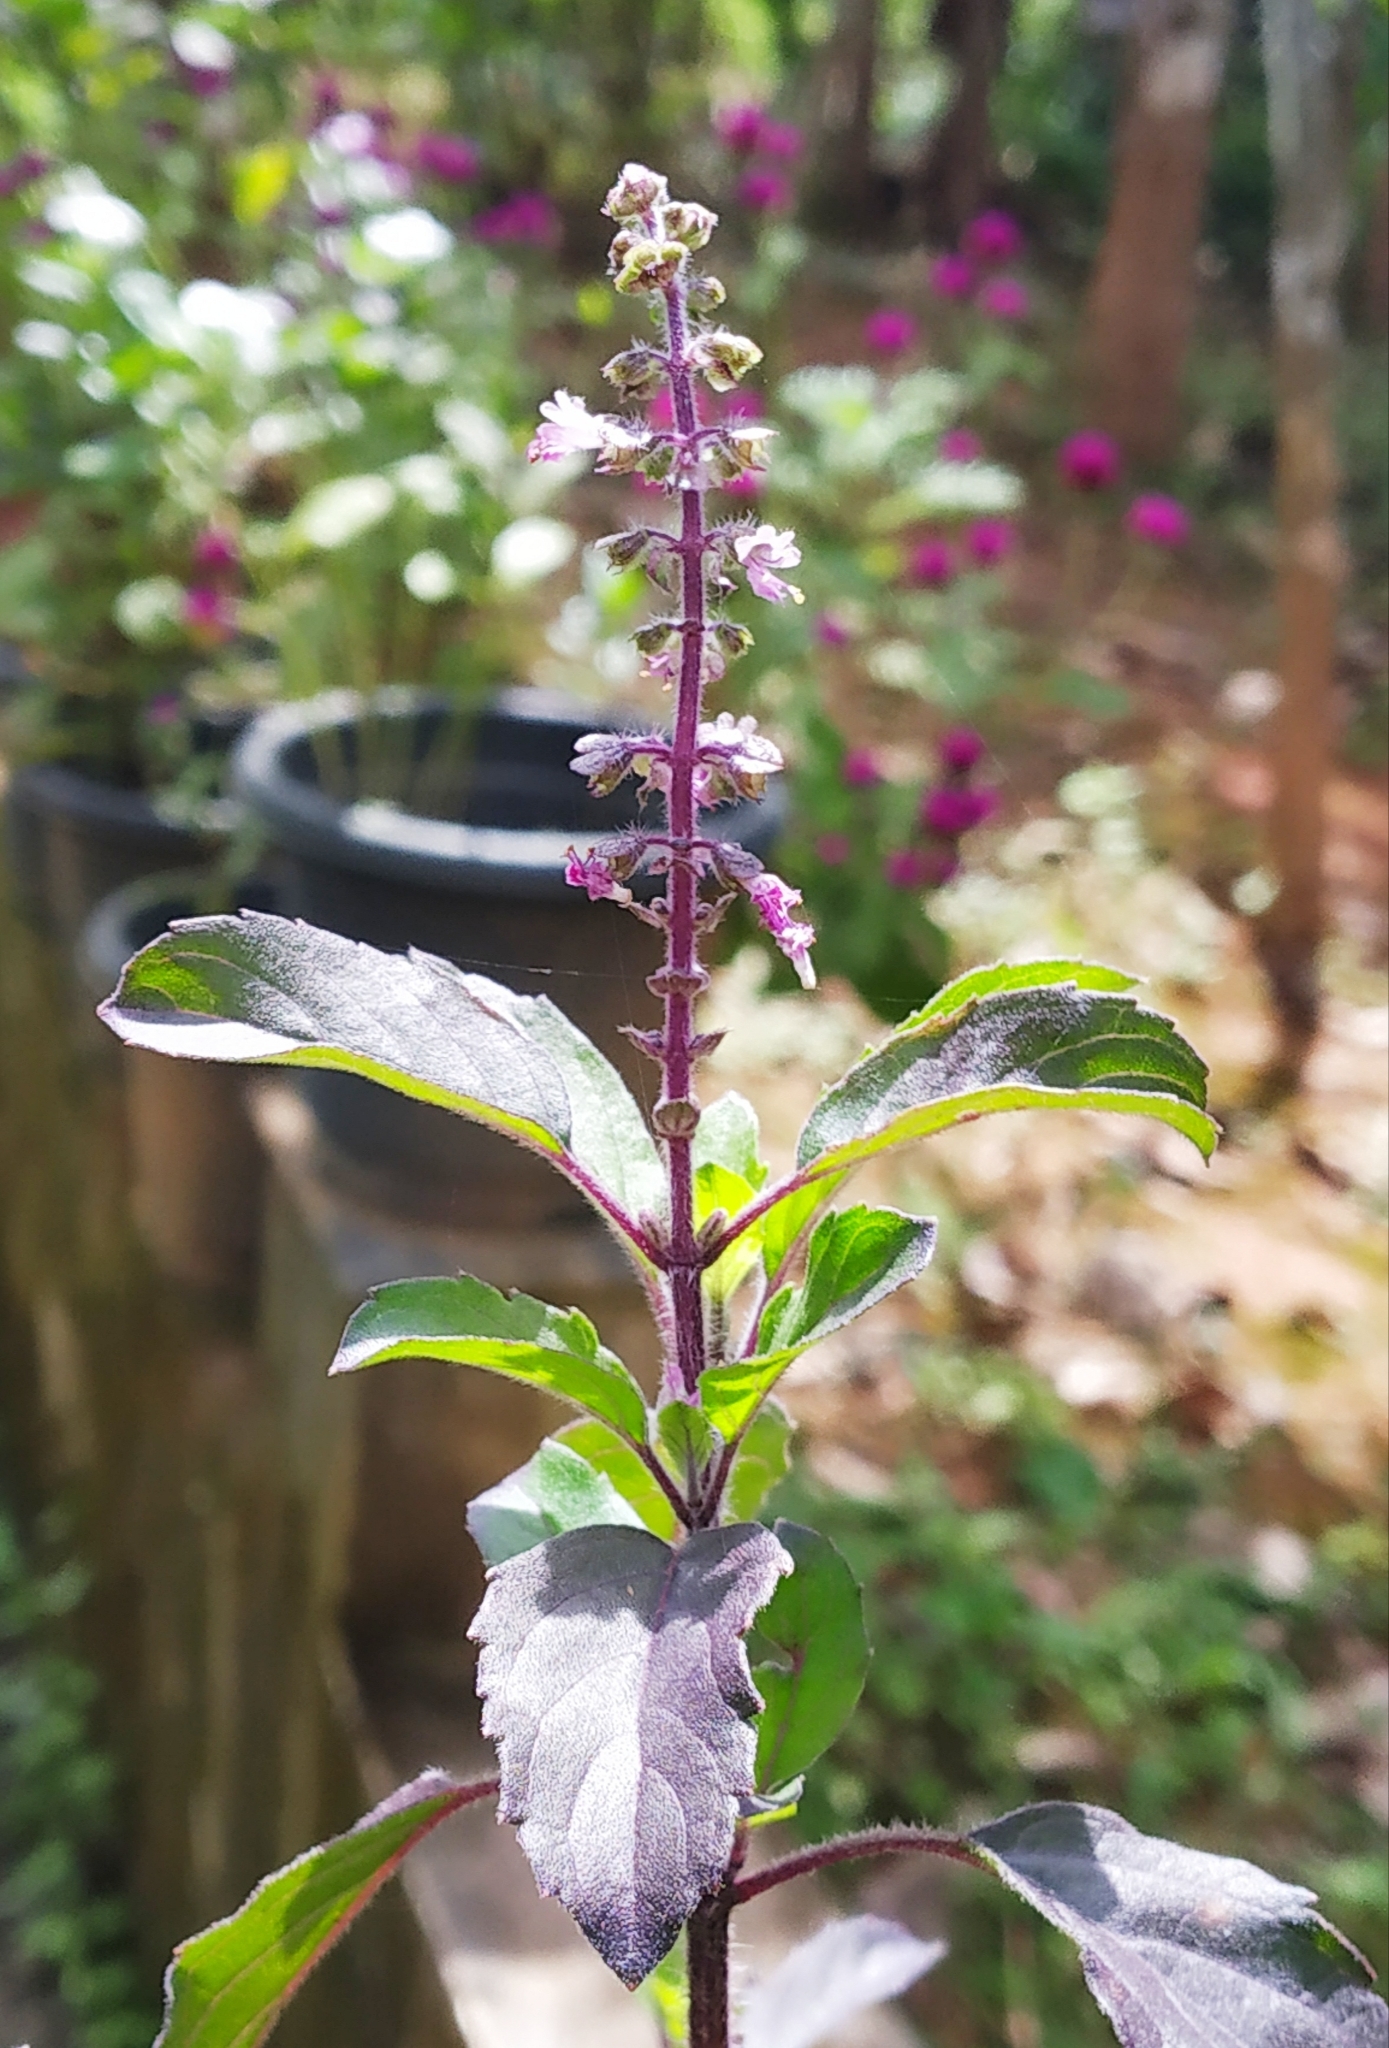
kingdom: Plantae
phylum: Tracheophyta
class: Magnoliopsida
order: Lamiales
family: Lamiaceae
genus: Ocimum
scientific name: Ocimum tenuiflorum
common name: Sacred basil
